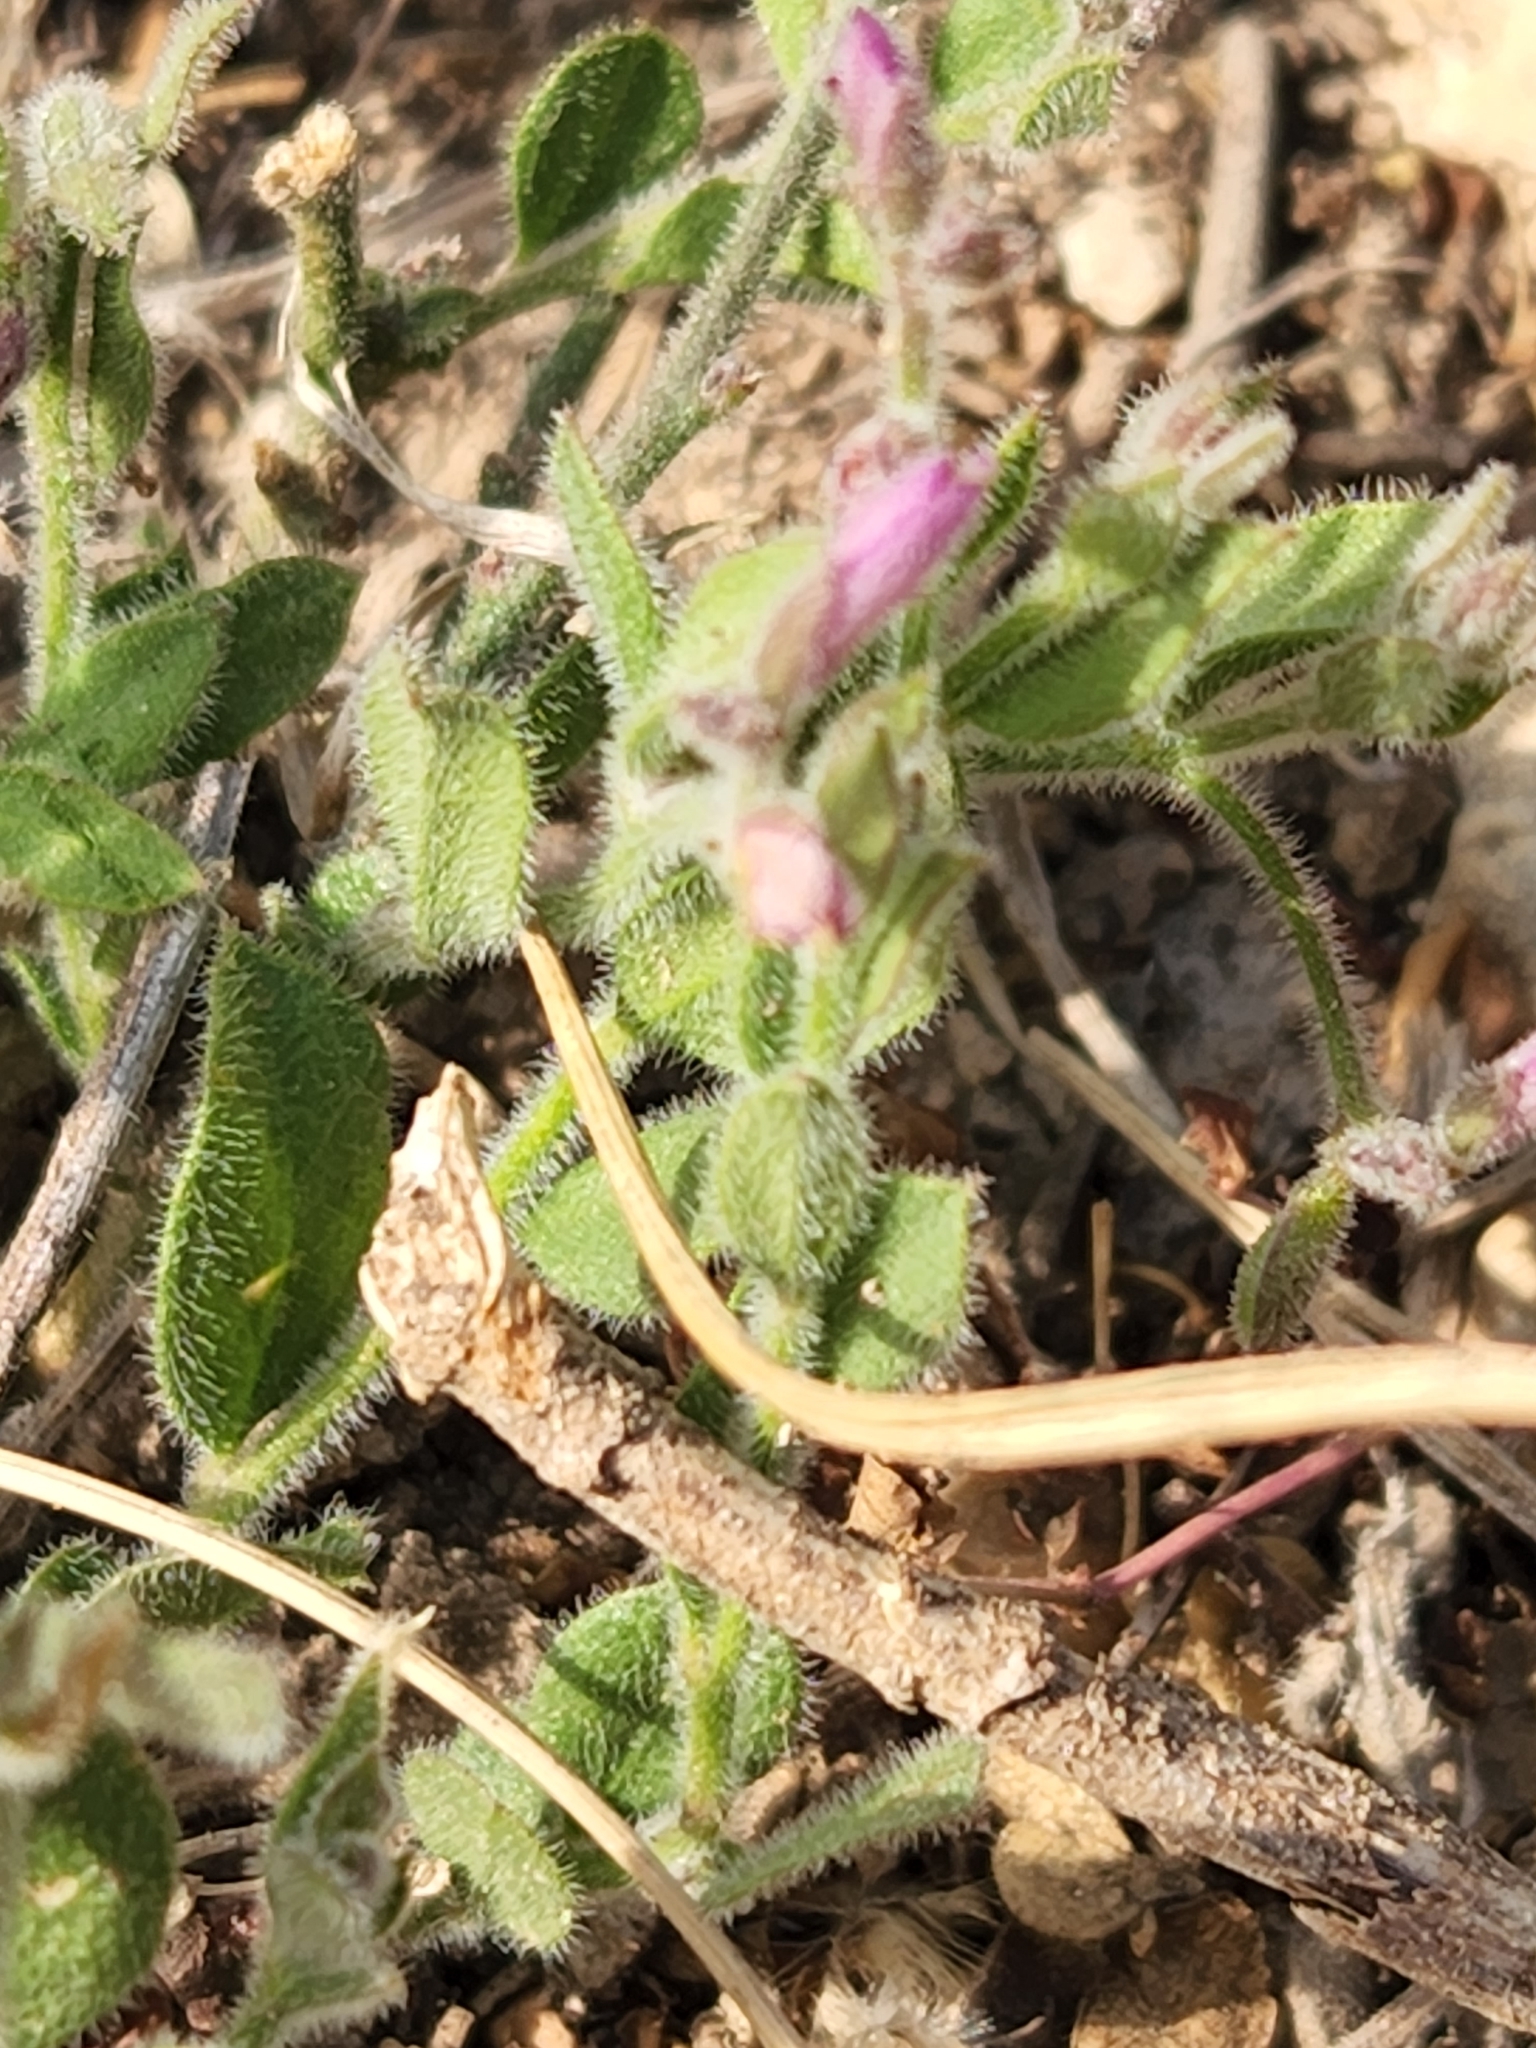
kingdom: Plantae
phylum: Tracheophyta
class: Magnoliopsida
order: Fabales
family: Polygalaceae
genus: Rhinotropis
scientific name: Rhinotropis lindheimeri
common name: Shrubby milkwort
